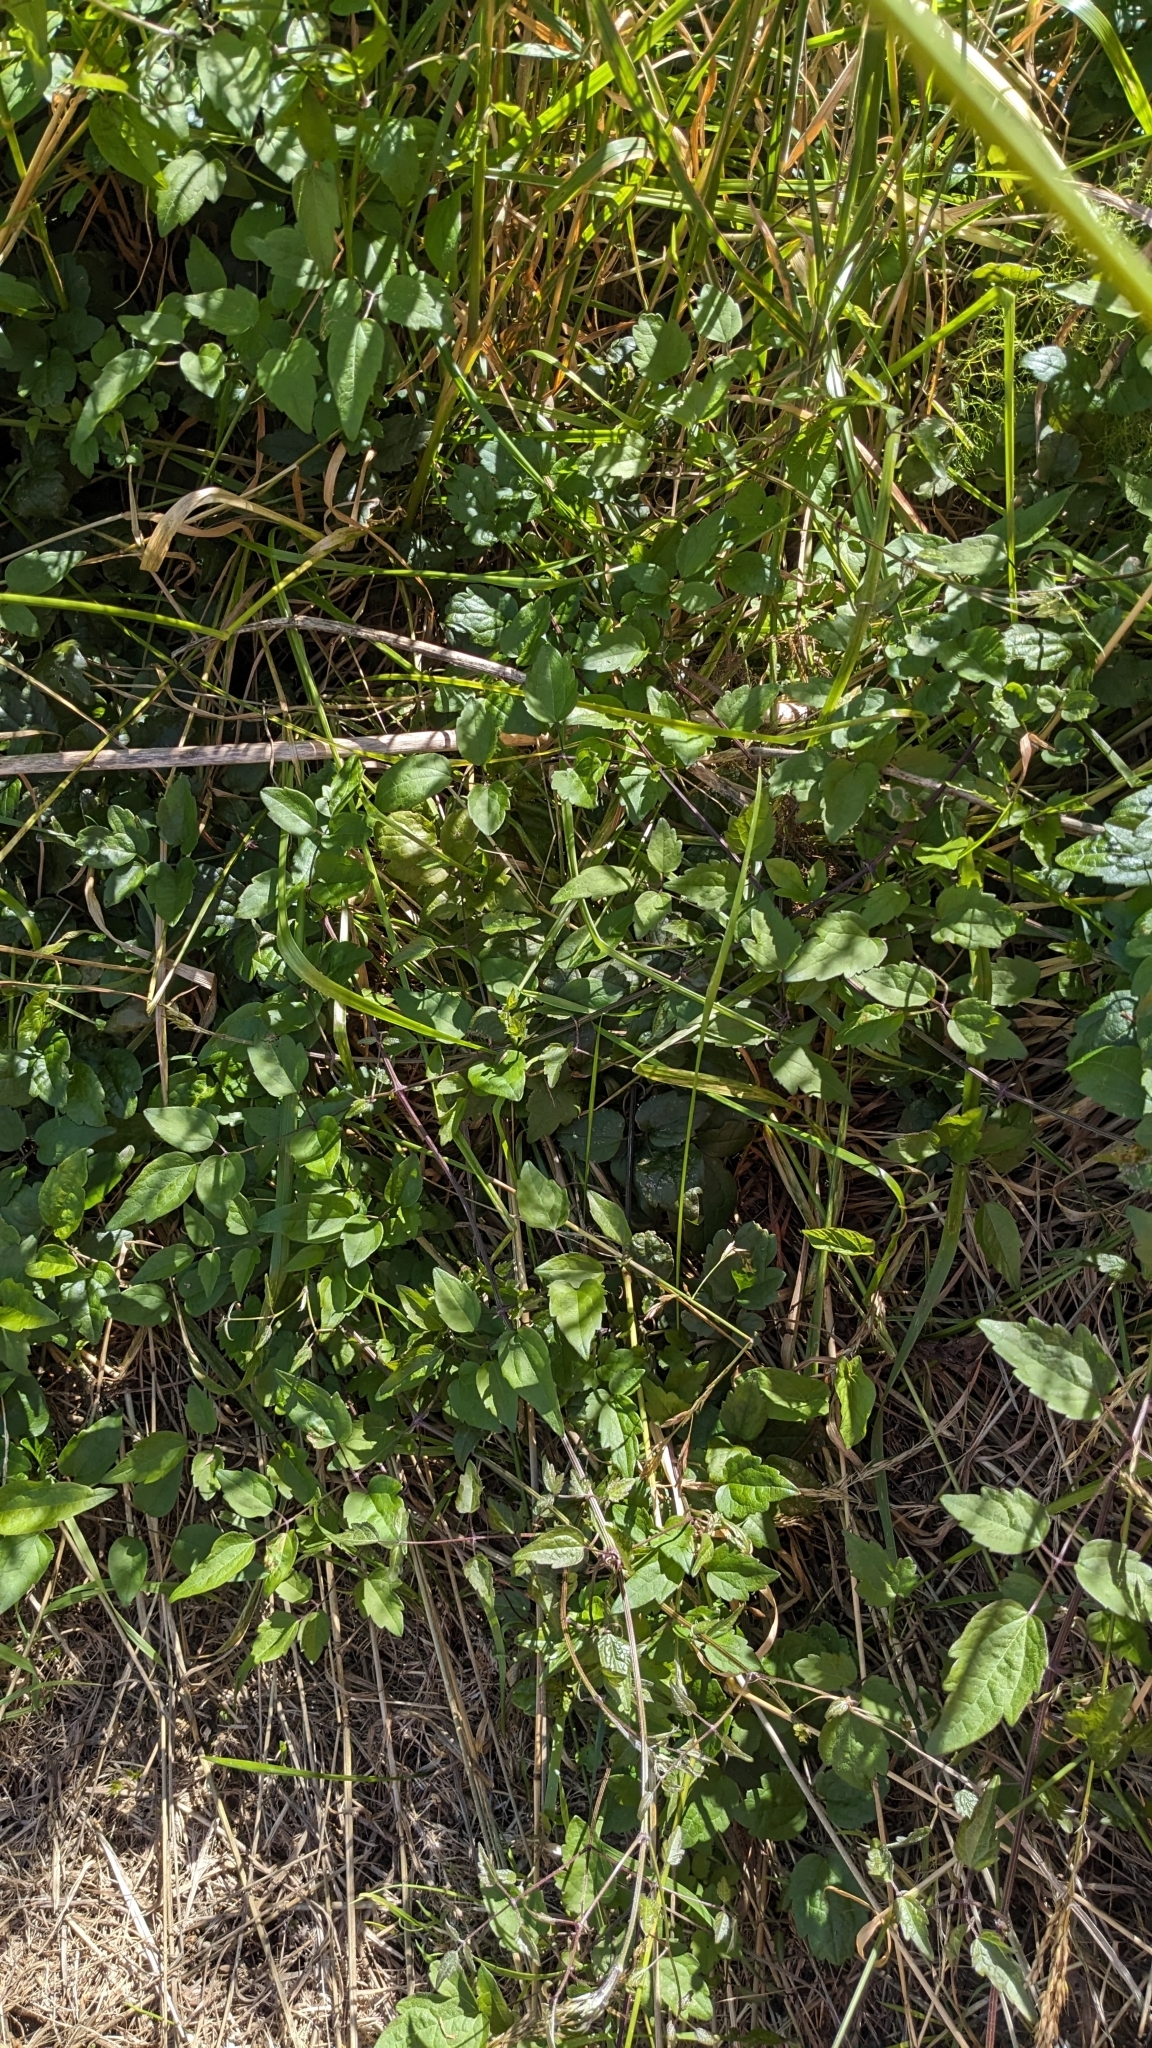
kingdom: Plantae
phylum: Tracheophyta
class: Magnoliopsida
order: Ranunculales
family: Ranunculaceae
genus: Clematis
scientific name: Clematis vitalba
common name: Evergreen clematis
